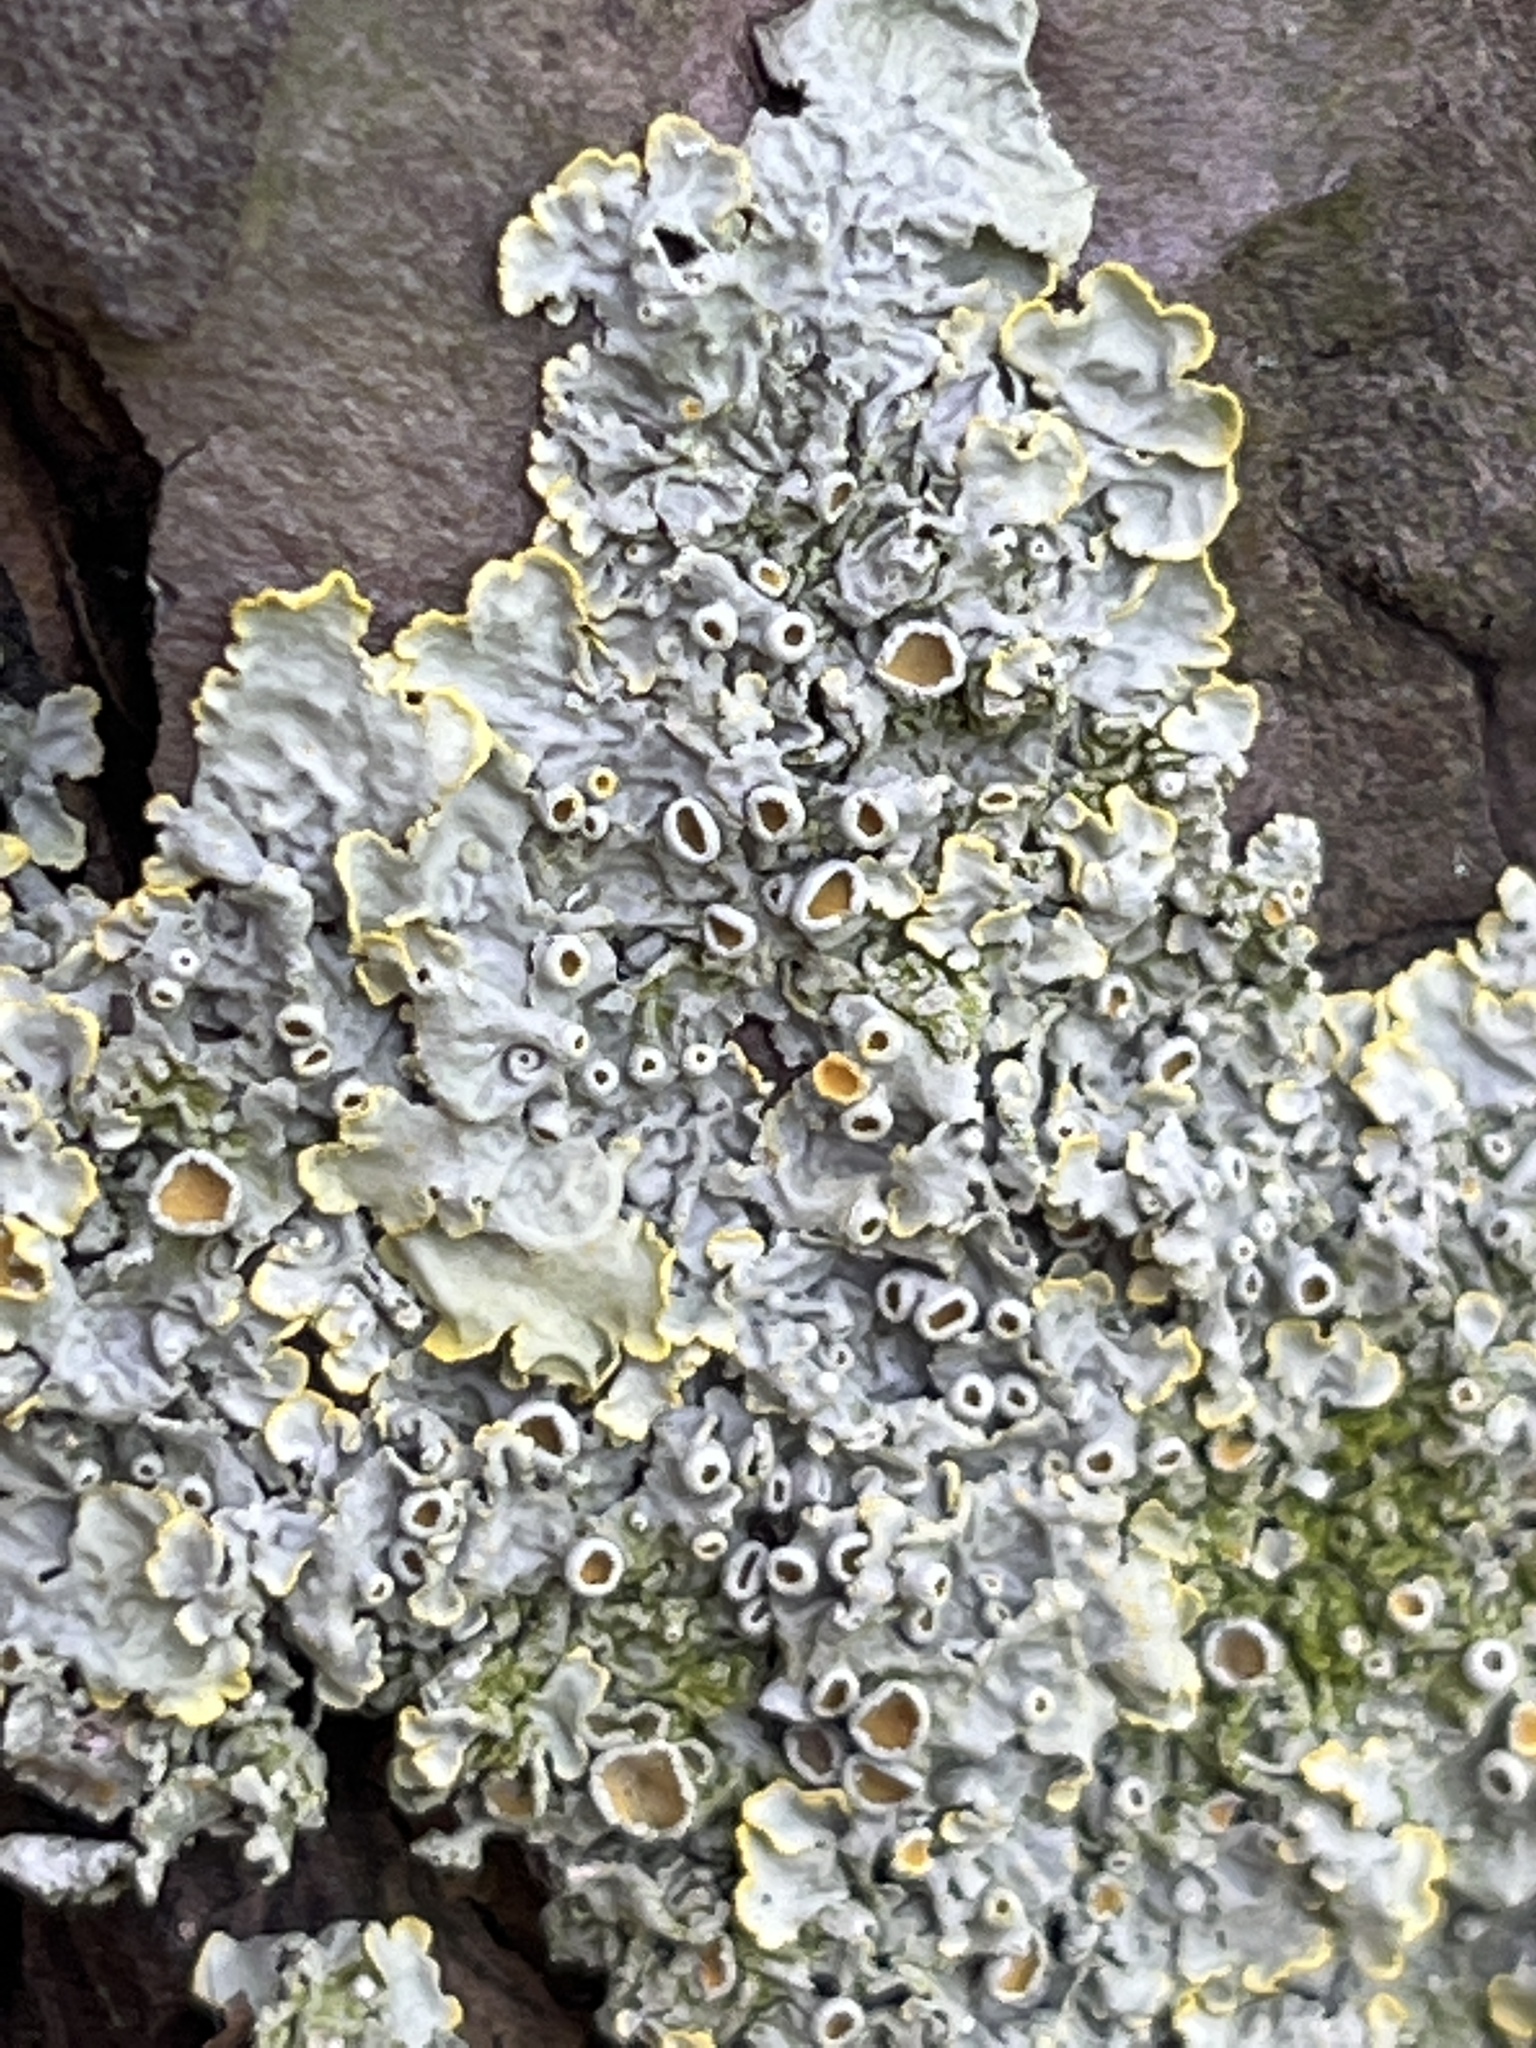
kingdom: Fungi
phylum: Ascomycota
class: Lecanoromycetes
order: Teloschistales
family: Teloschistaceae
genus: Xanthoria
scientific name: Xanthoria parietina
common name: Common orange lichen
